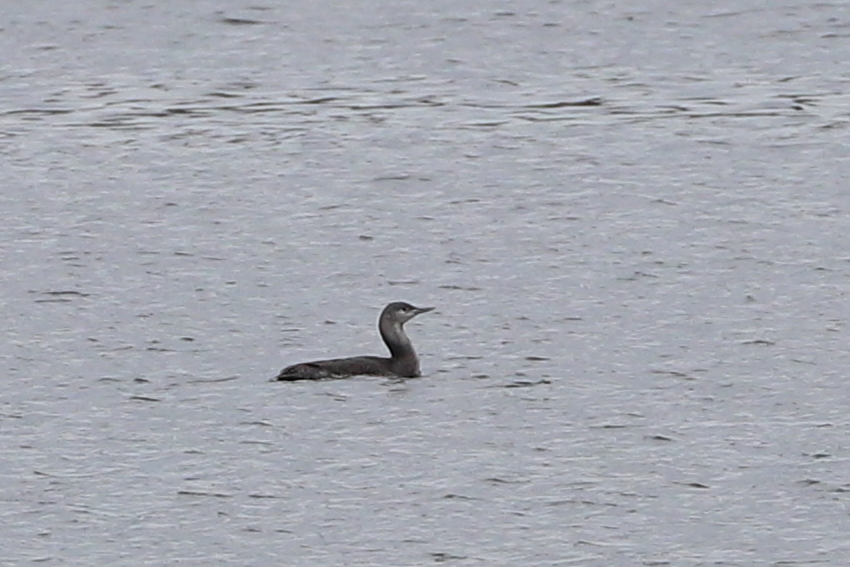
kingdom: Animalia
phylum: Chordata
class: Aves
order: Gaviiformes
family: Gaviidae
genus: Gavia
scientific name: Gavia stellata
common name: Red-throated loon
